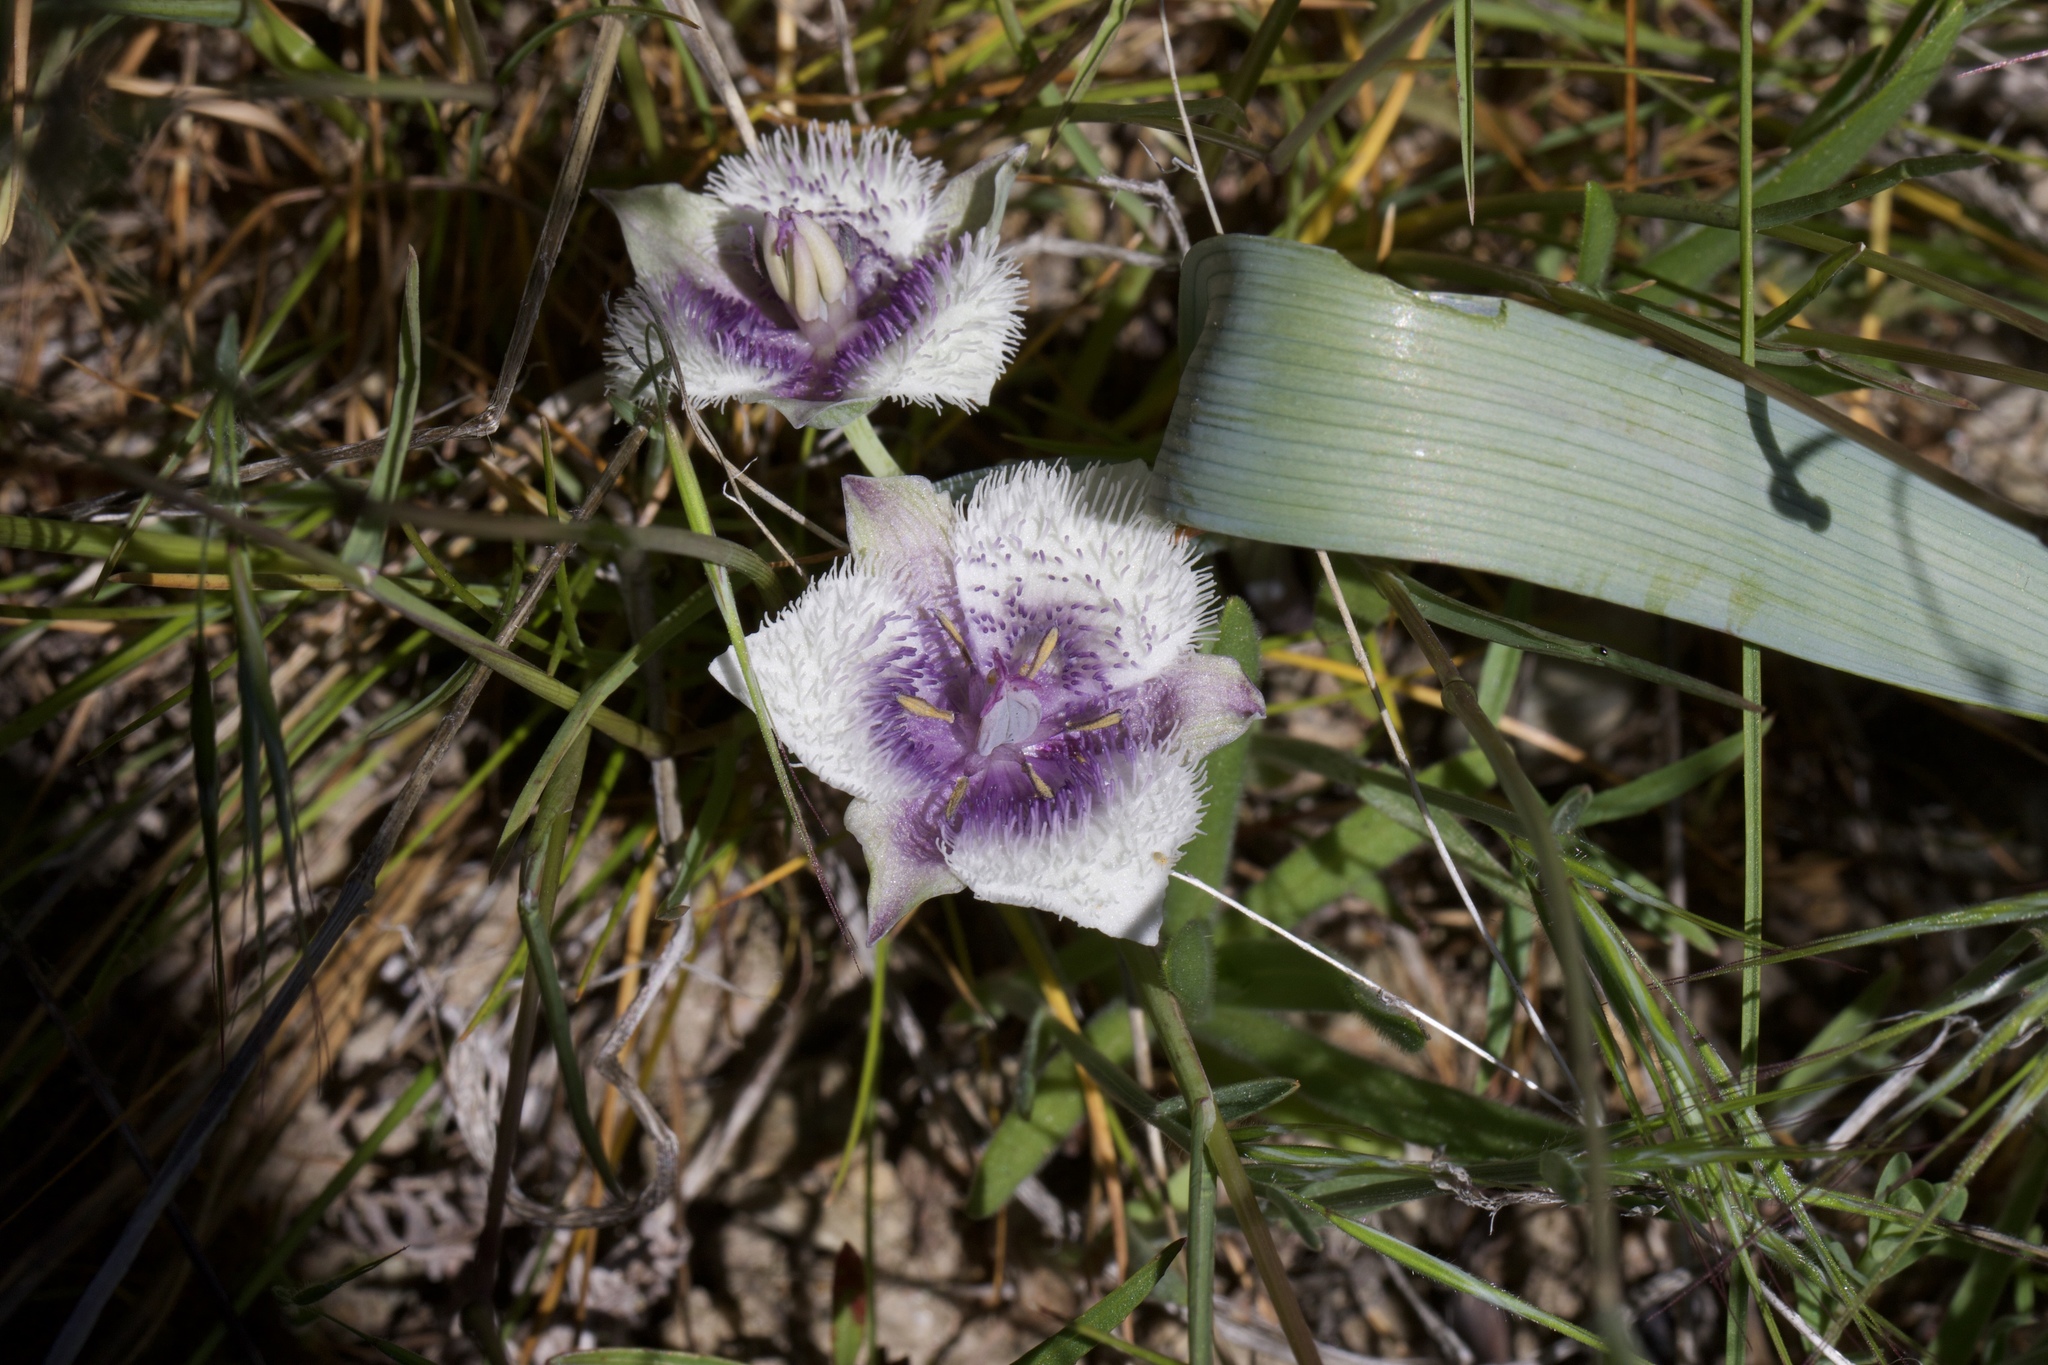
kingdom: Plantae
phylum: Tracheophyta
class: Liliopsida
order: Liliales
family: Liliaceae
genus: Calochortus
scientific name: Calochortus coeruleus
